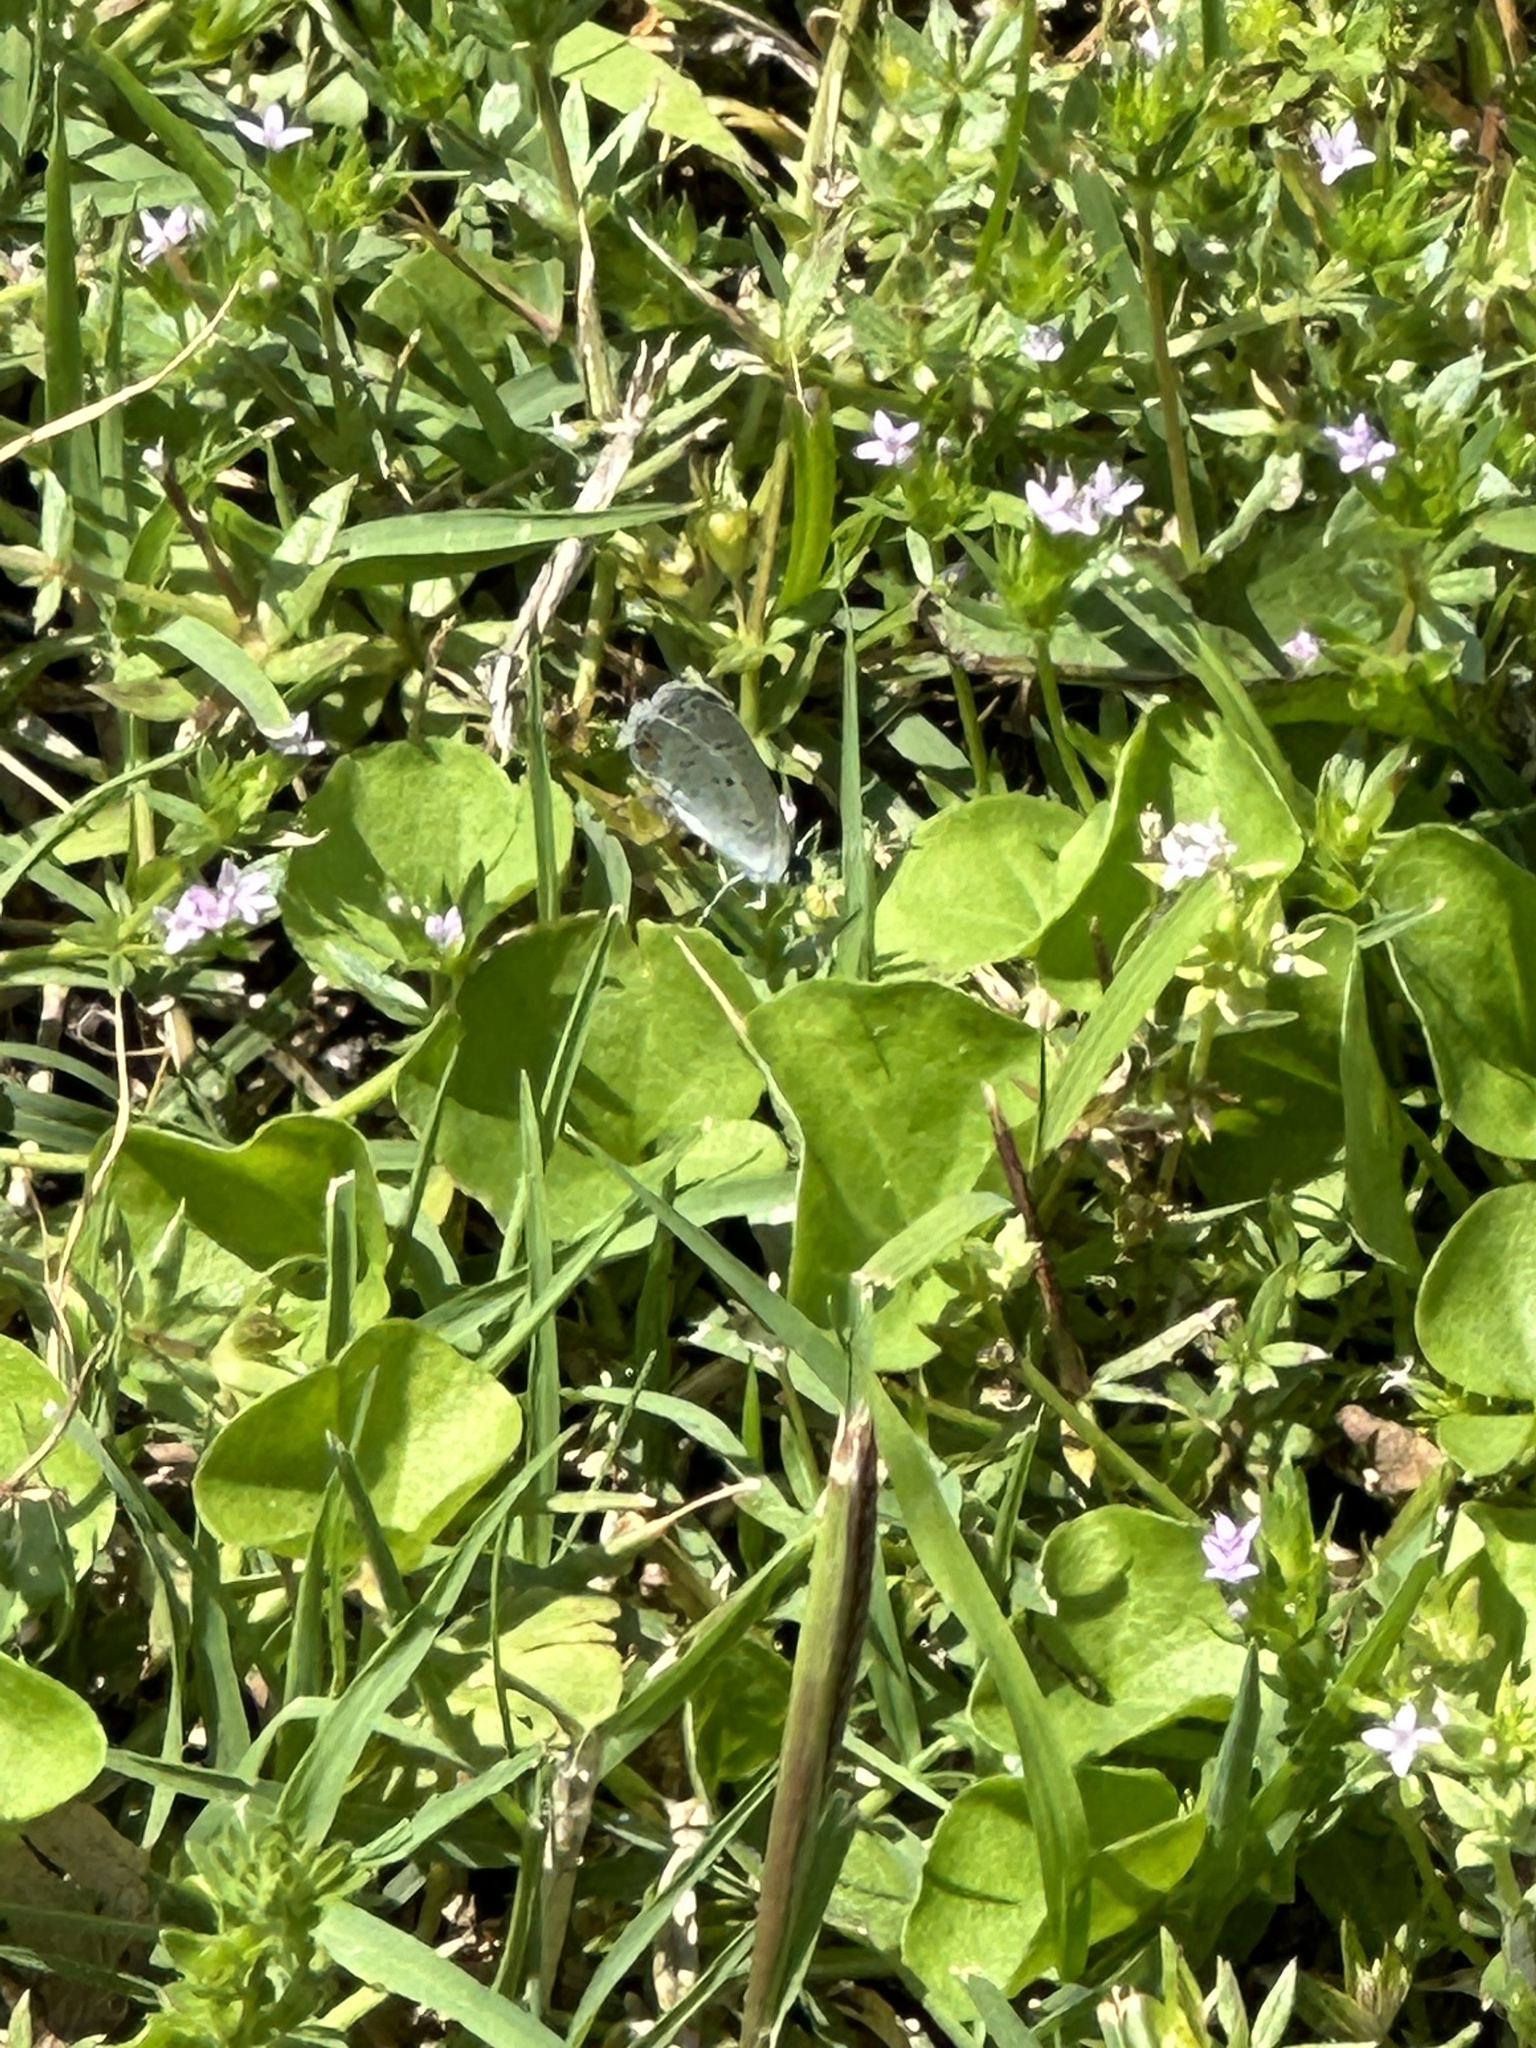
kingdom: Animalia
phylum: Arthropoda
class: Insecta
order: Lepidoptera
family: Lycaenidae
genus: Elkalyce
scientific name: Elkalyce comyntas
